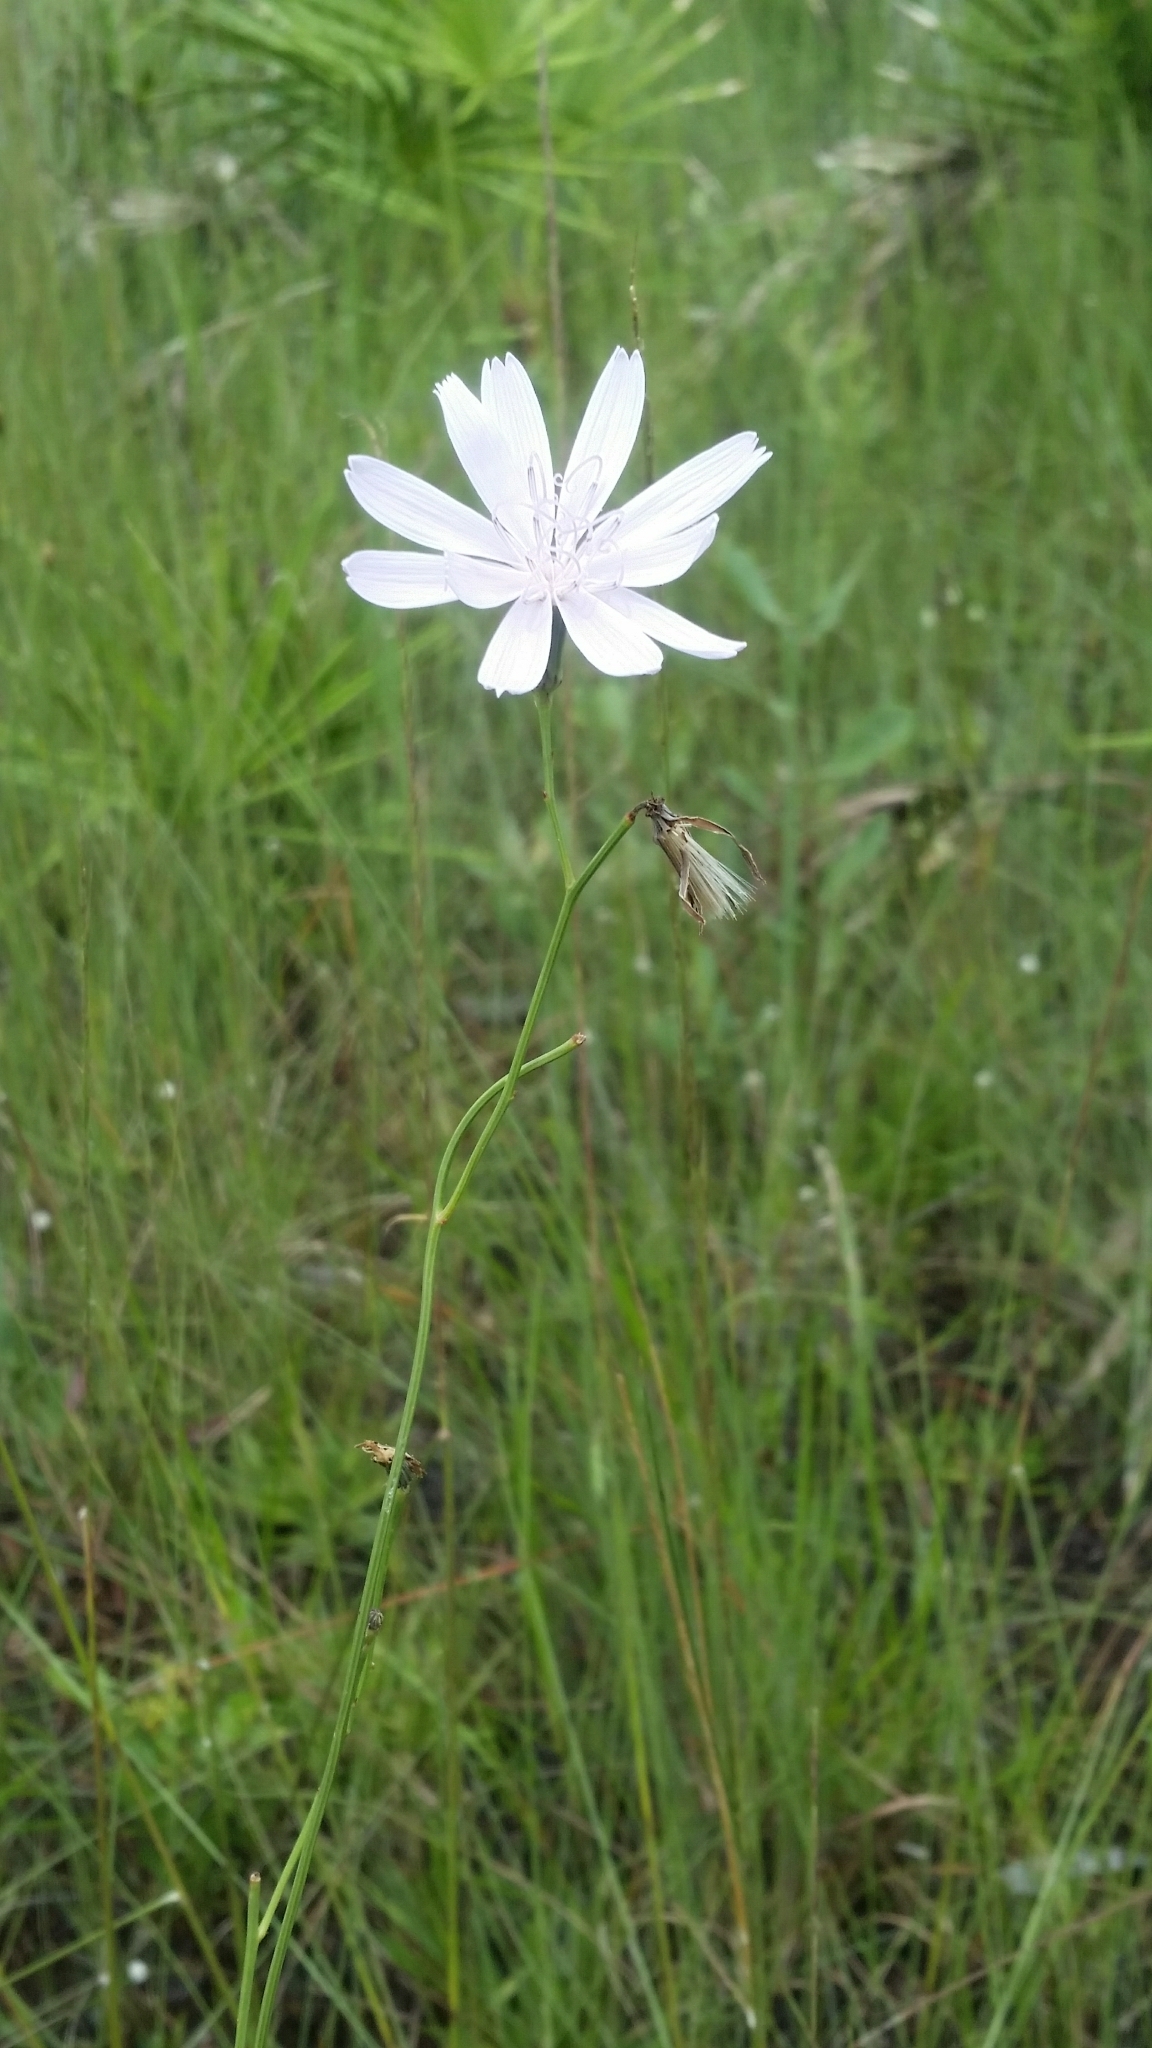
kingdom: Plantae
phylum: Tracheophyta
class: Magnoliopsida
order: Asterales
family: Asteraceae
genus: Lygodesmia
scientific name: Lygodesmia aphylla
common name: Rose-rush
